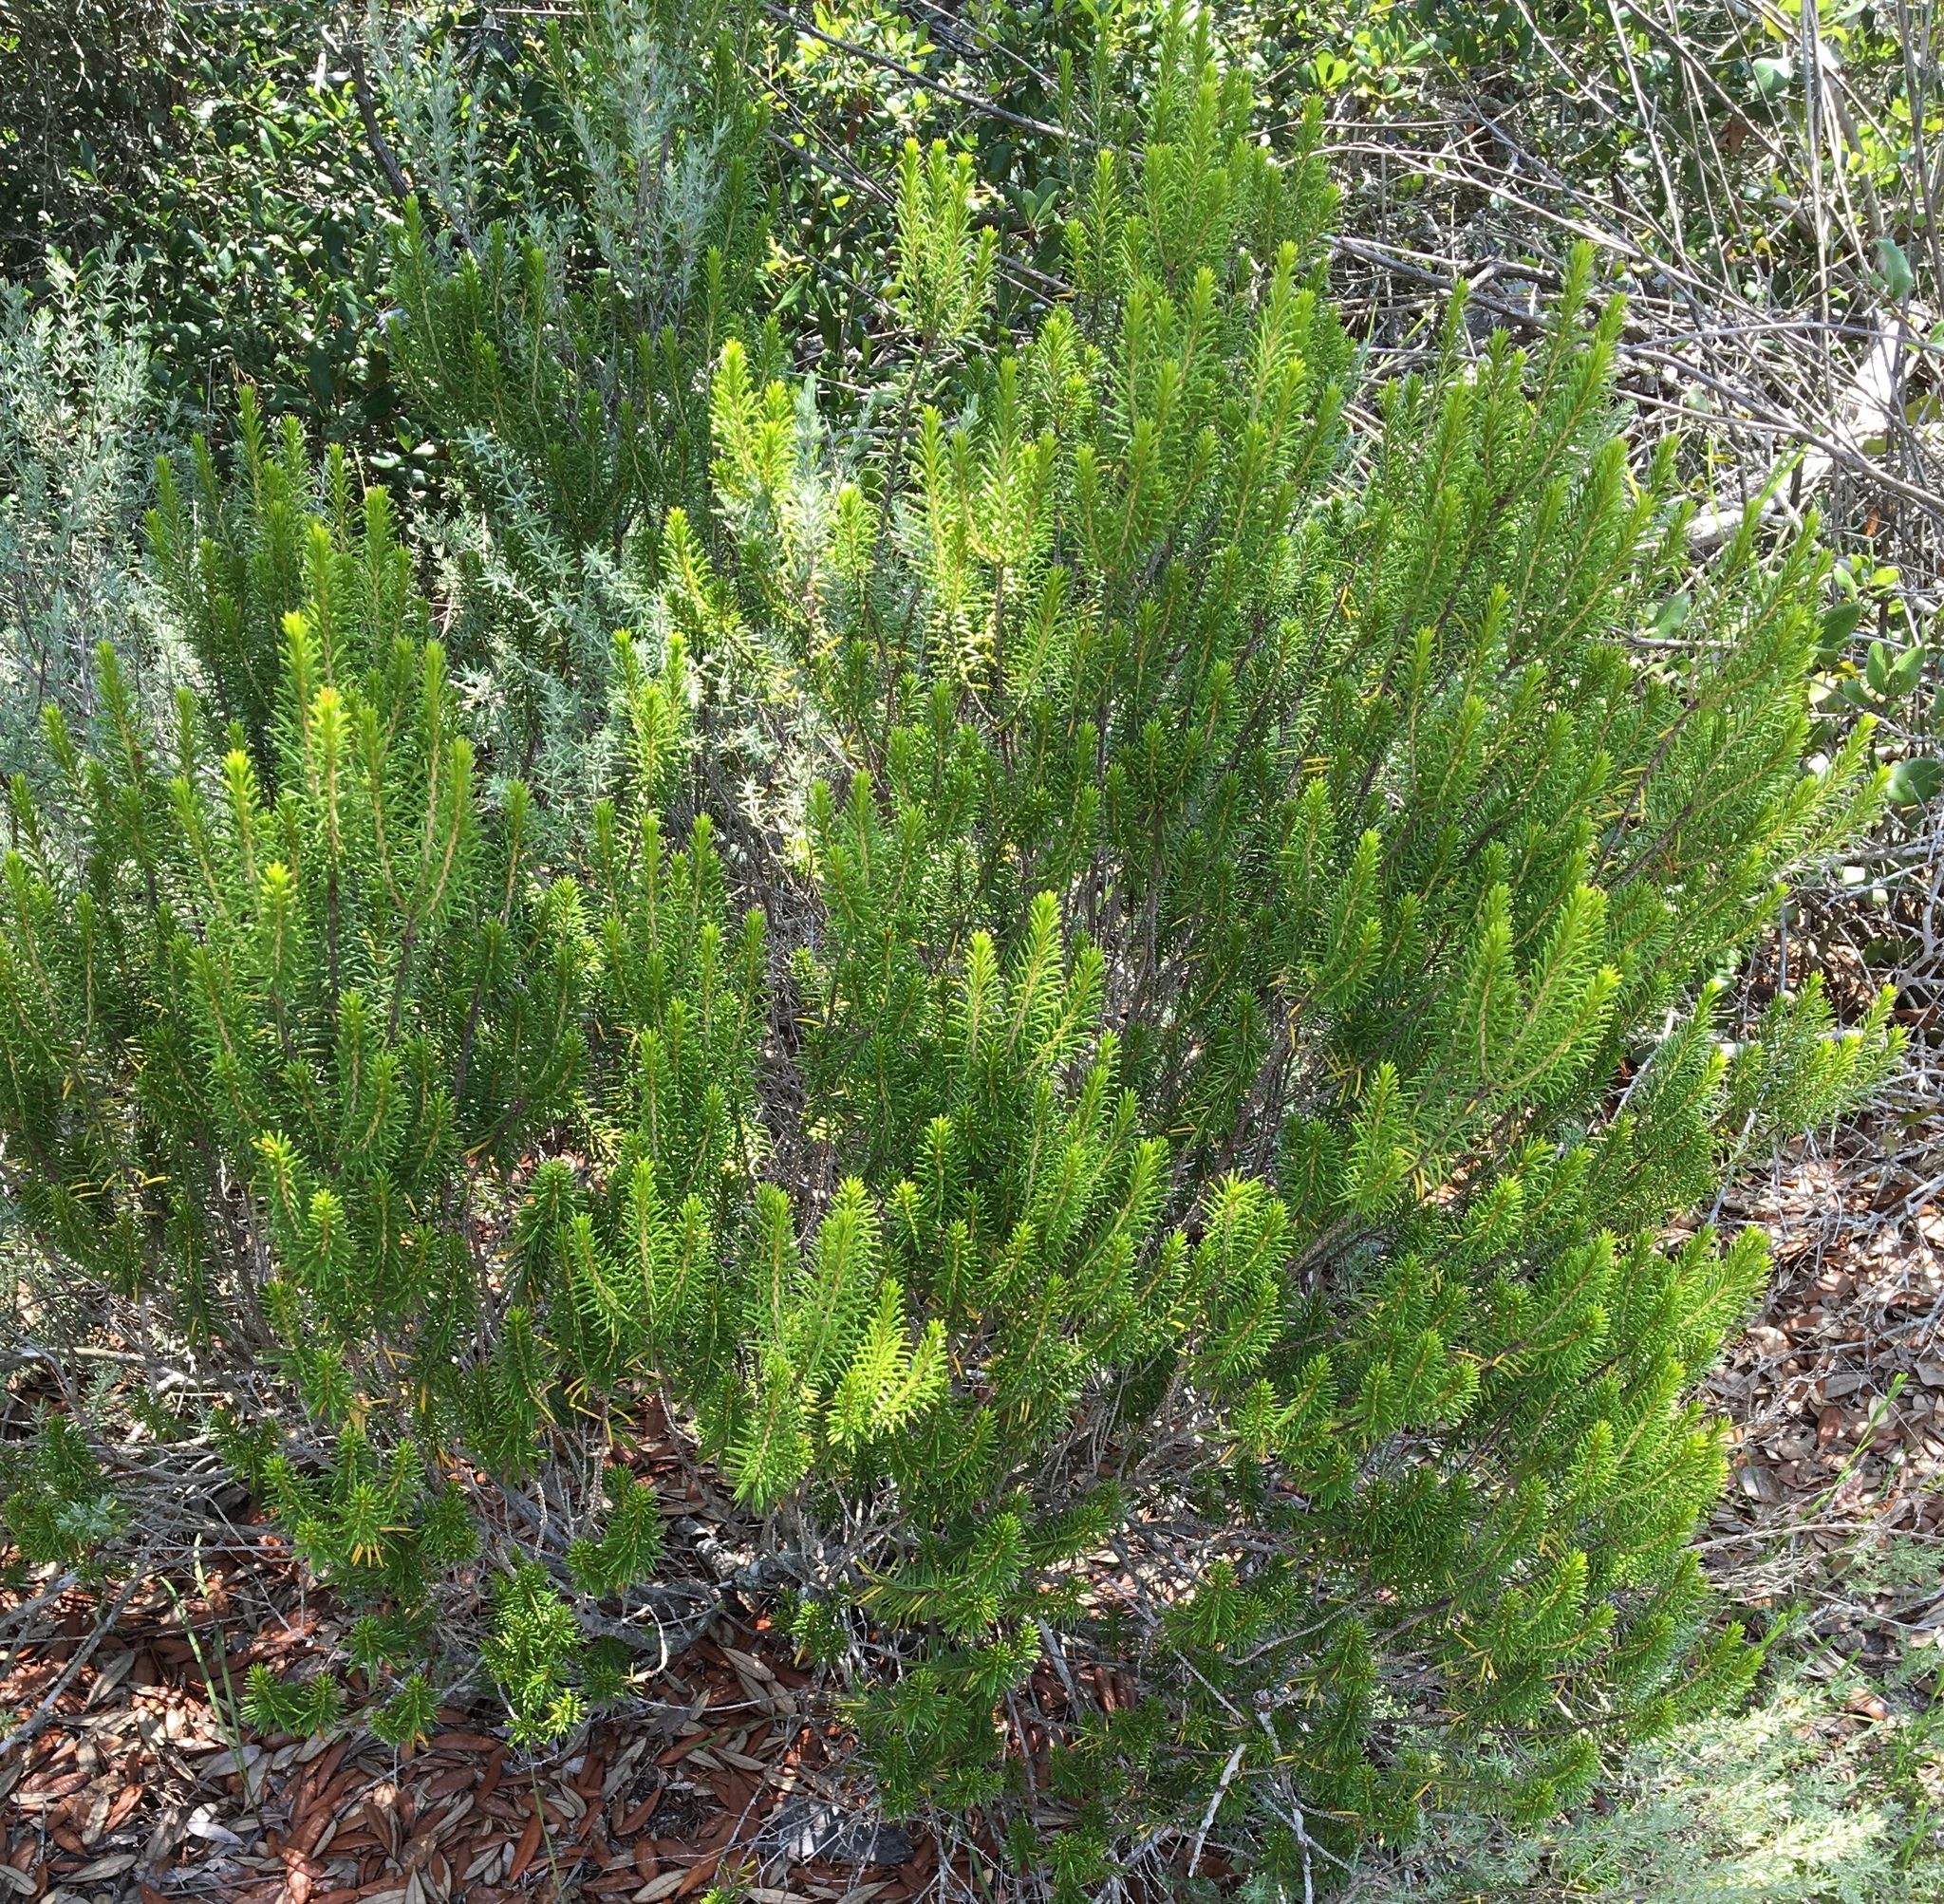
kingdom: Plantae
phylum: Tracheophyta
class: Magnoliopsida
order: Ericales
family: Ericaceae
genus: Ceratiola
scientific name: Ceratiola ericoides
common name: Sandhill-rosemary
